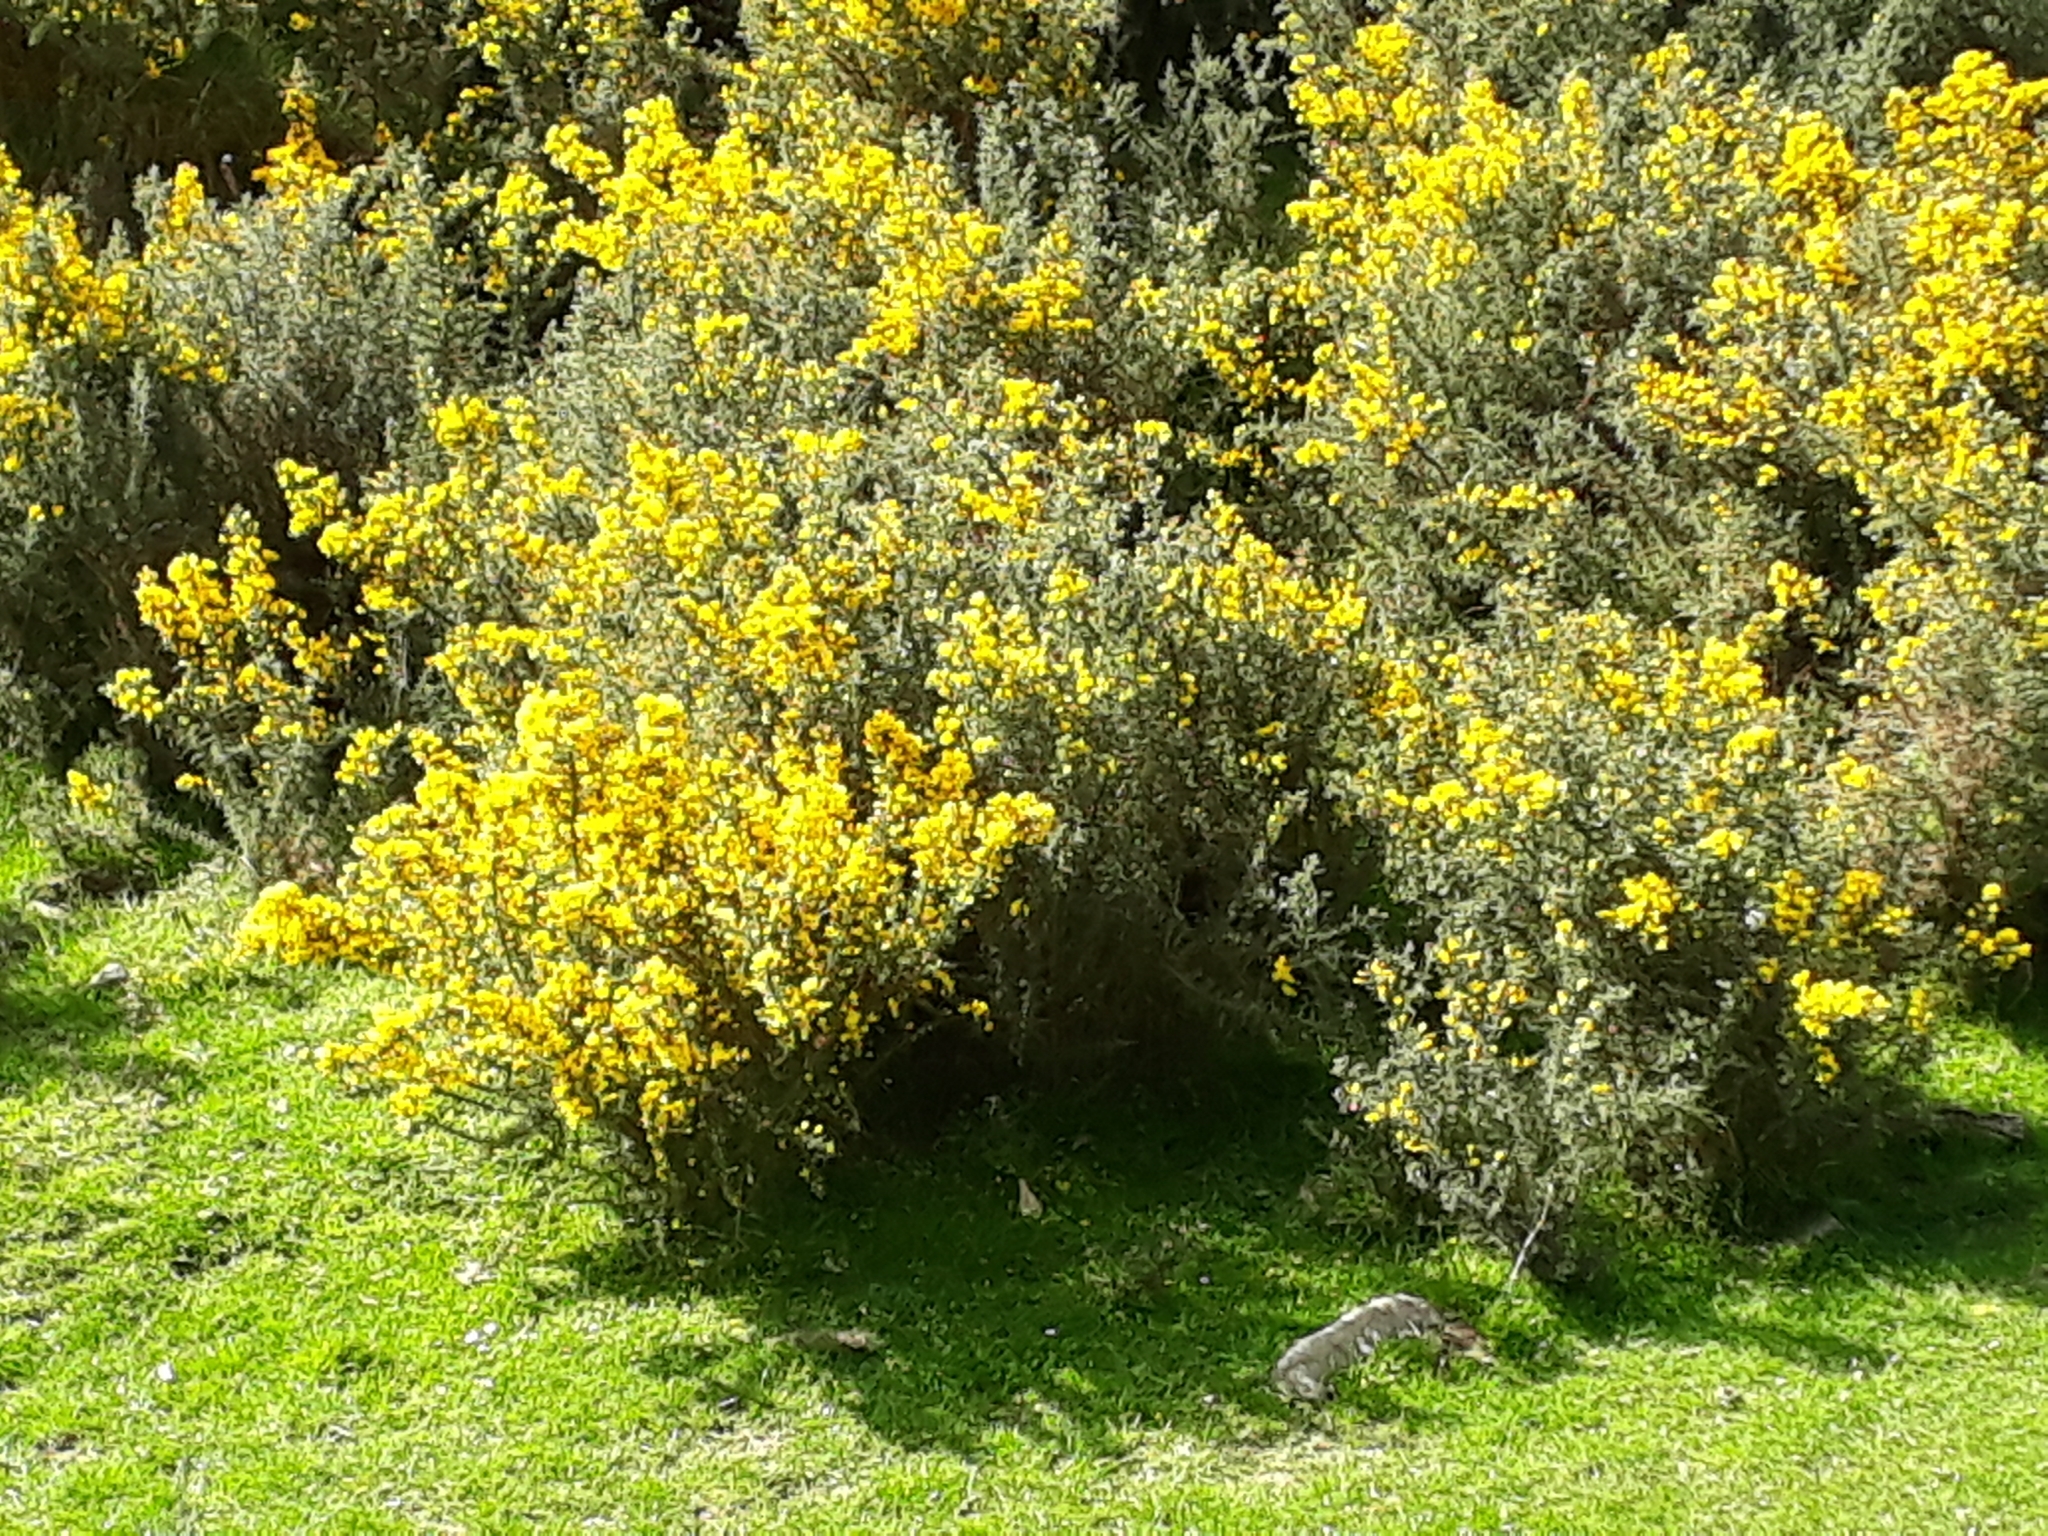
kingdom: Plantae
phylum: Tracheophyta
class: Magnoliopsida
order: Fabales
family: Fabaceae
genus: Ulex
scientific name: Ulex europaeus
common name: Common gorse
